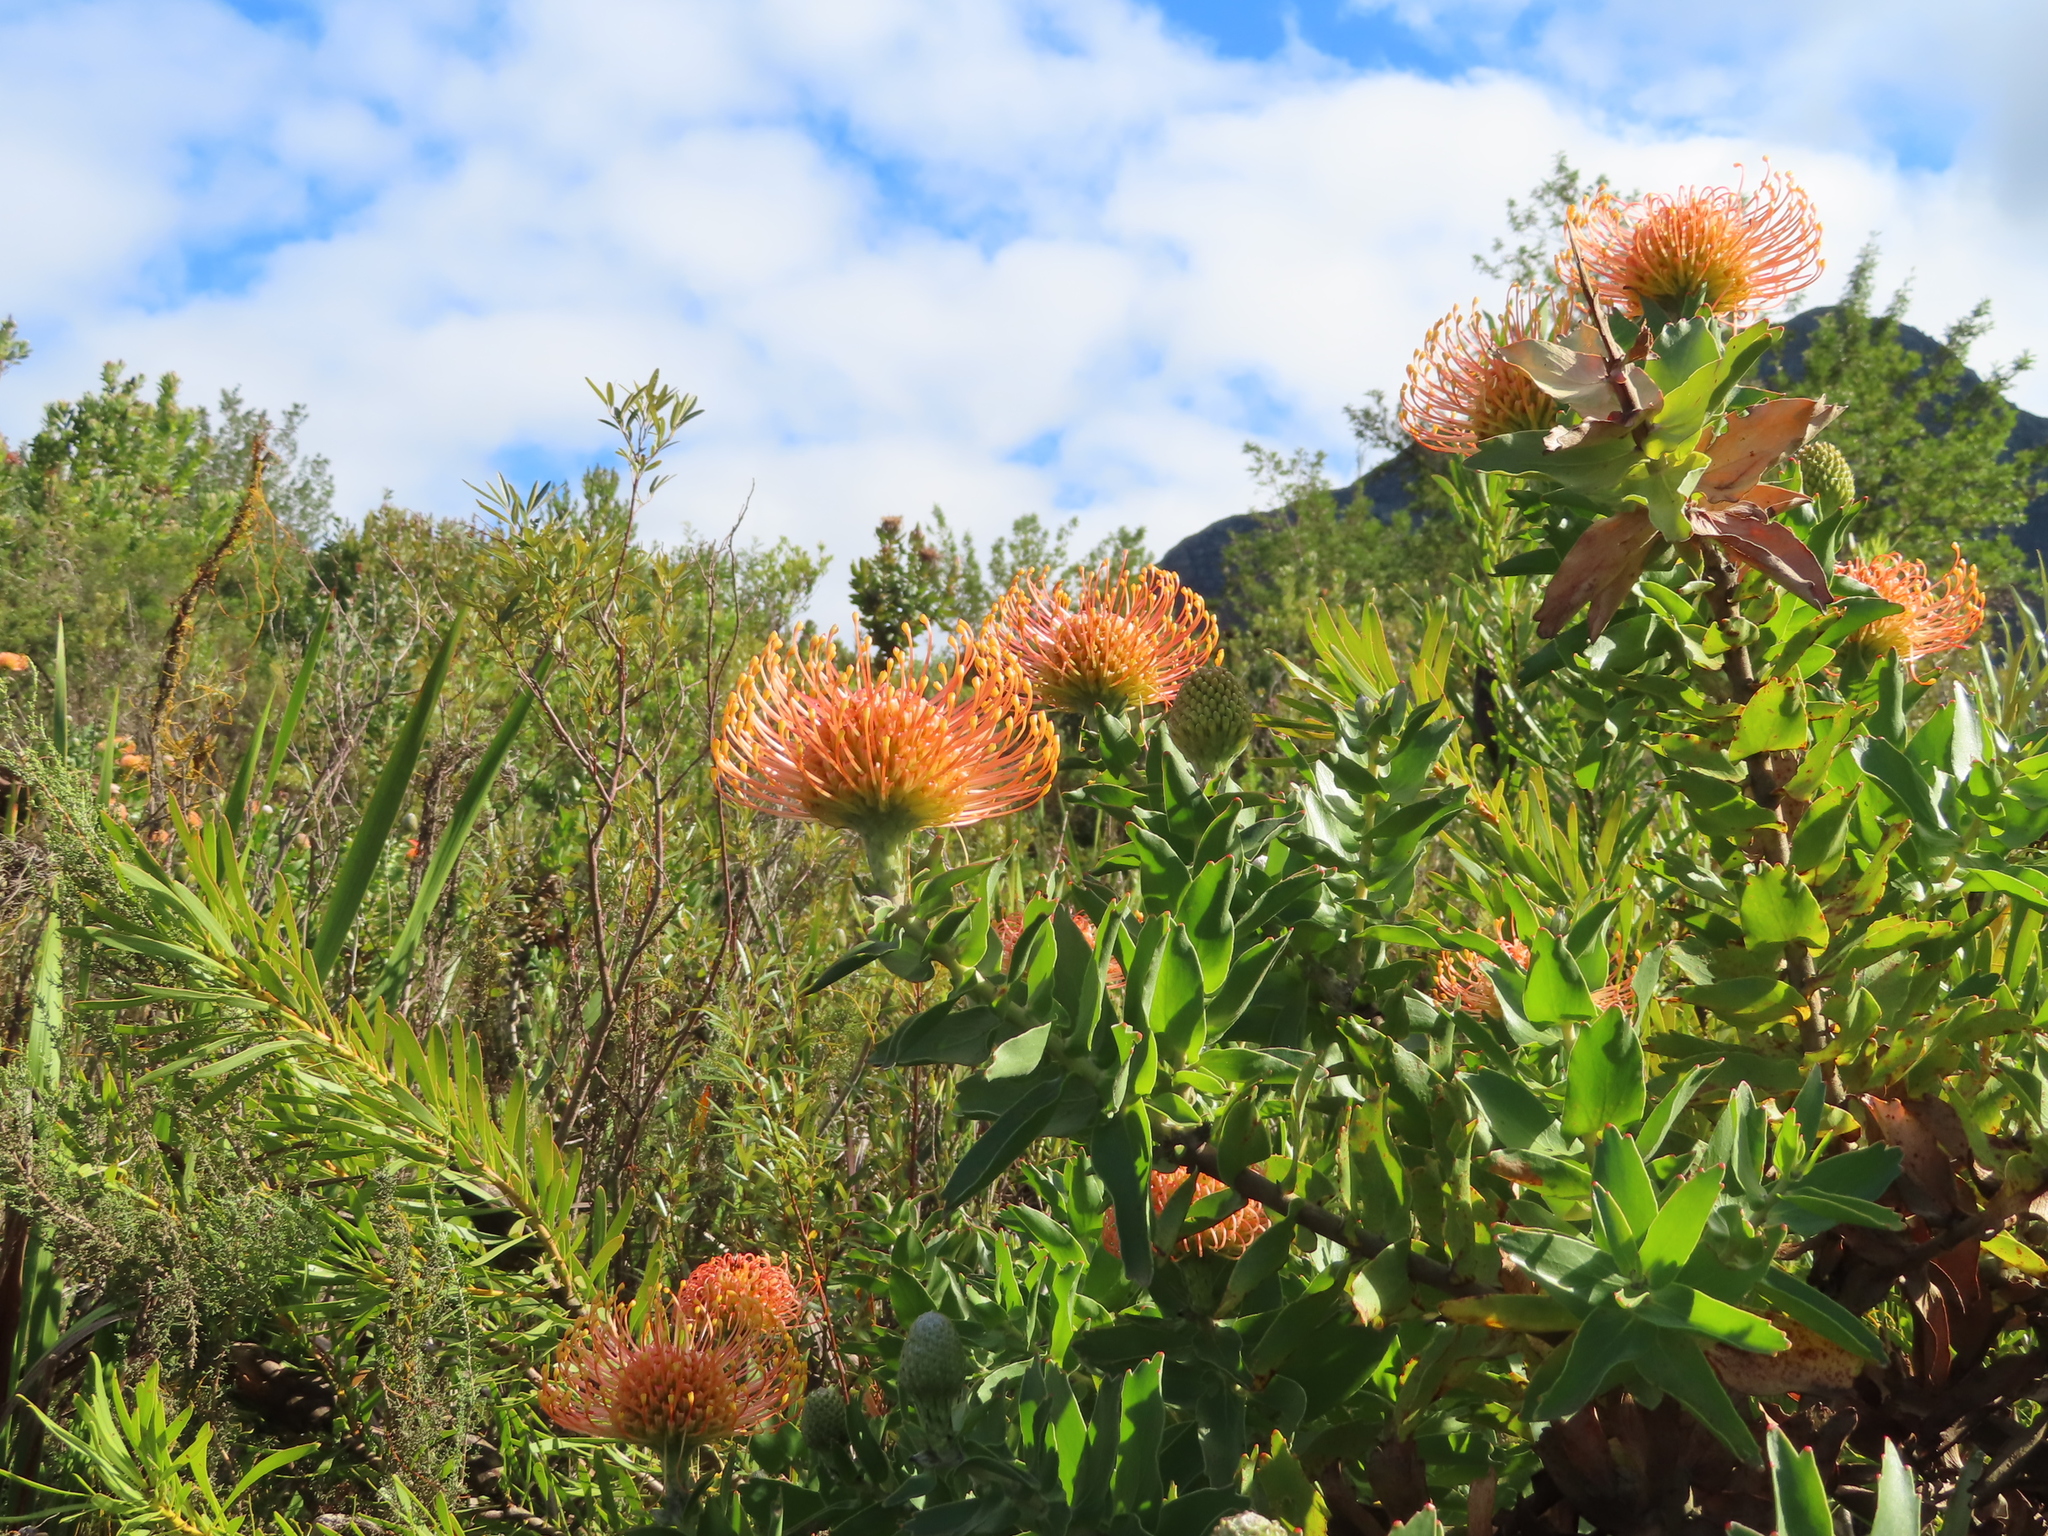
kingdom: Plantae
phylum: Tracheophyta
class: Magnoliopsida
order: Proteales
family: Proteaceae
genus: Leucospermum
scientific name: Leucospermum cordifolium
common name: Red pincushion-protea
